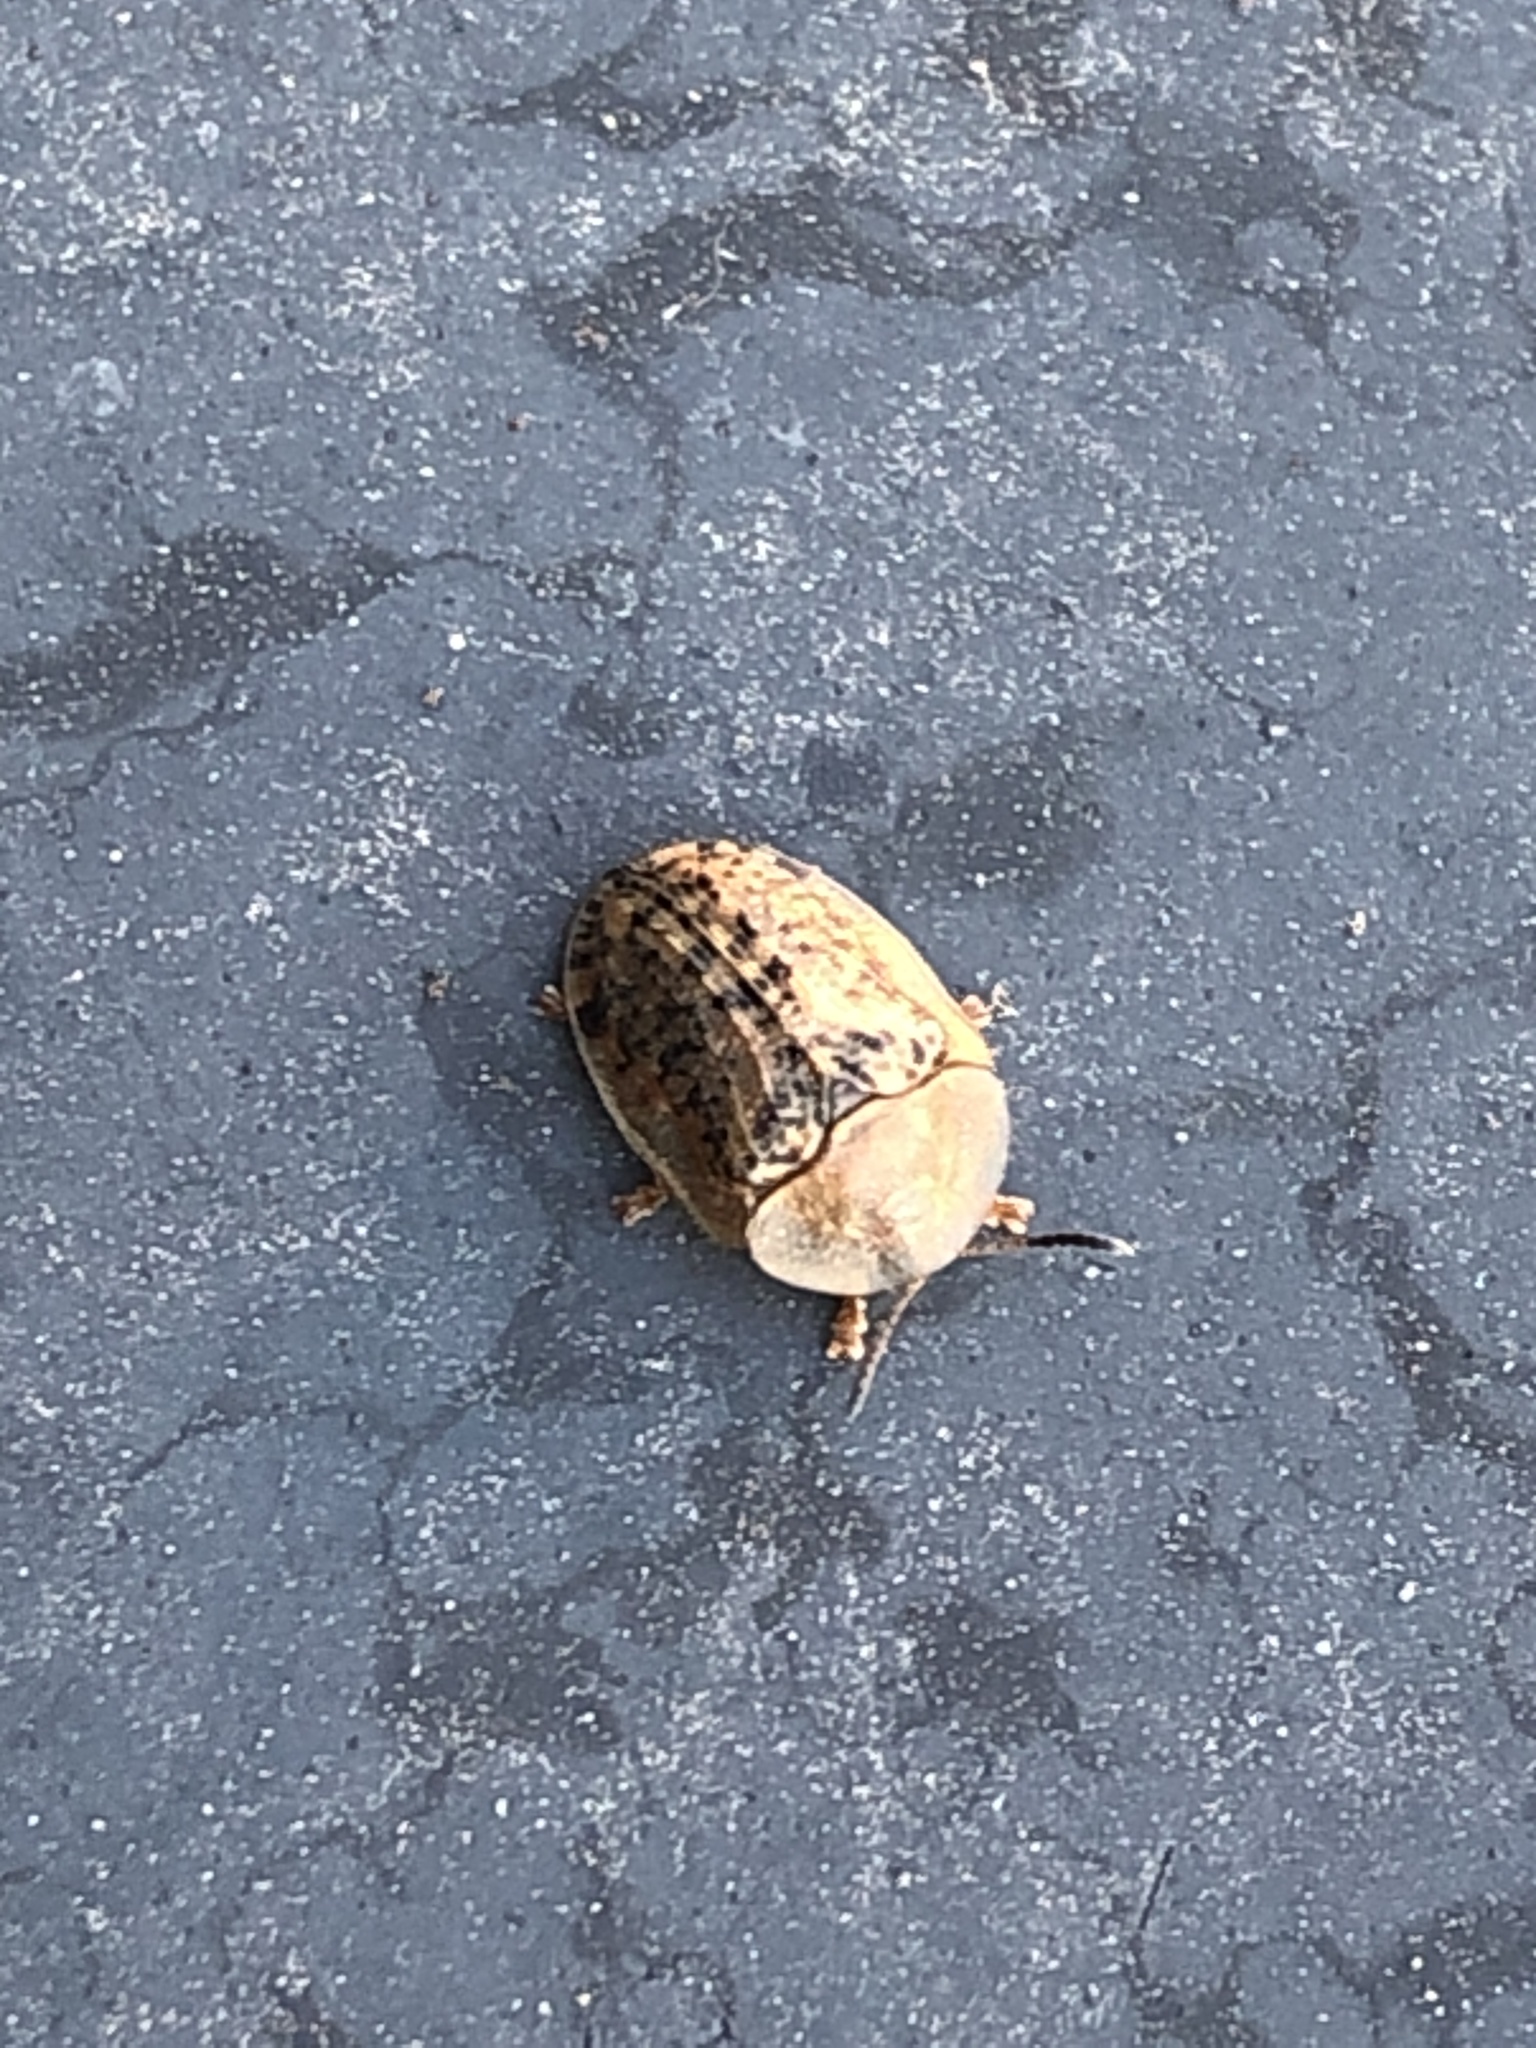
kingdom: Animalia
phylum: Arthropoda
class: Insecta
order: Coleoptera
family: Chrysomelidae
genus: Cassida
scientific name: Cassida nebulosa
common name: Beet tortoise beetle
